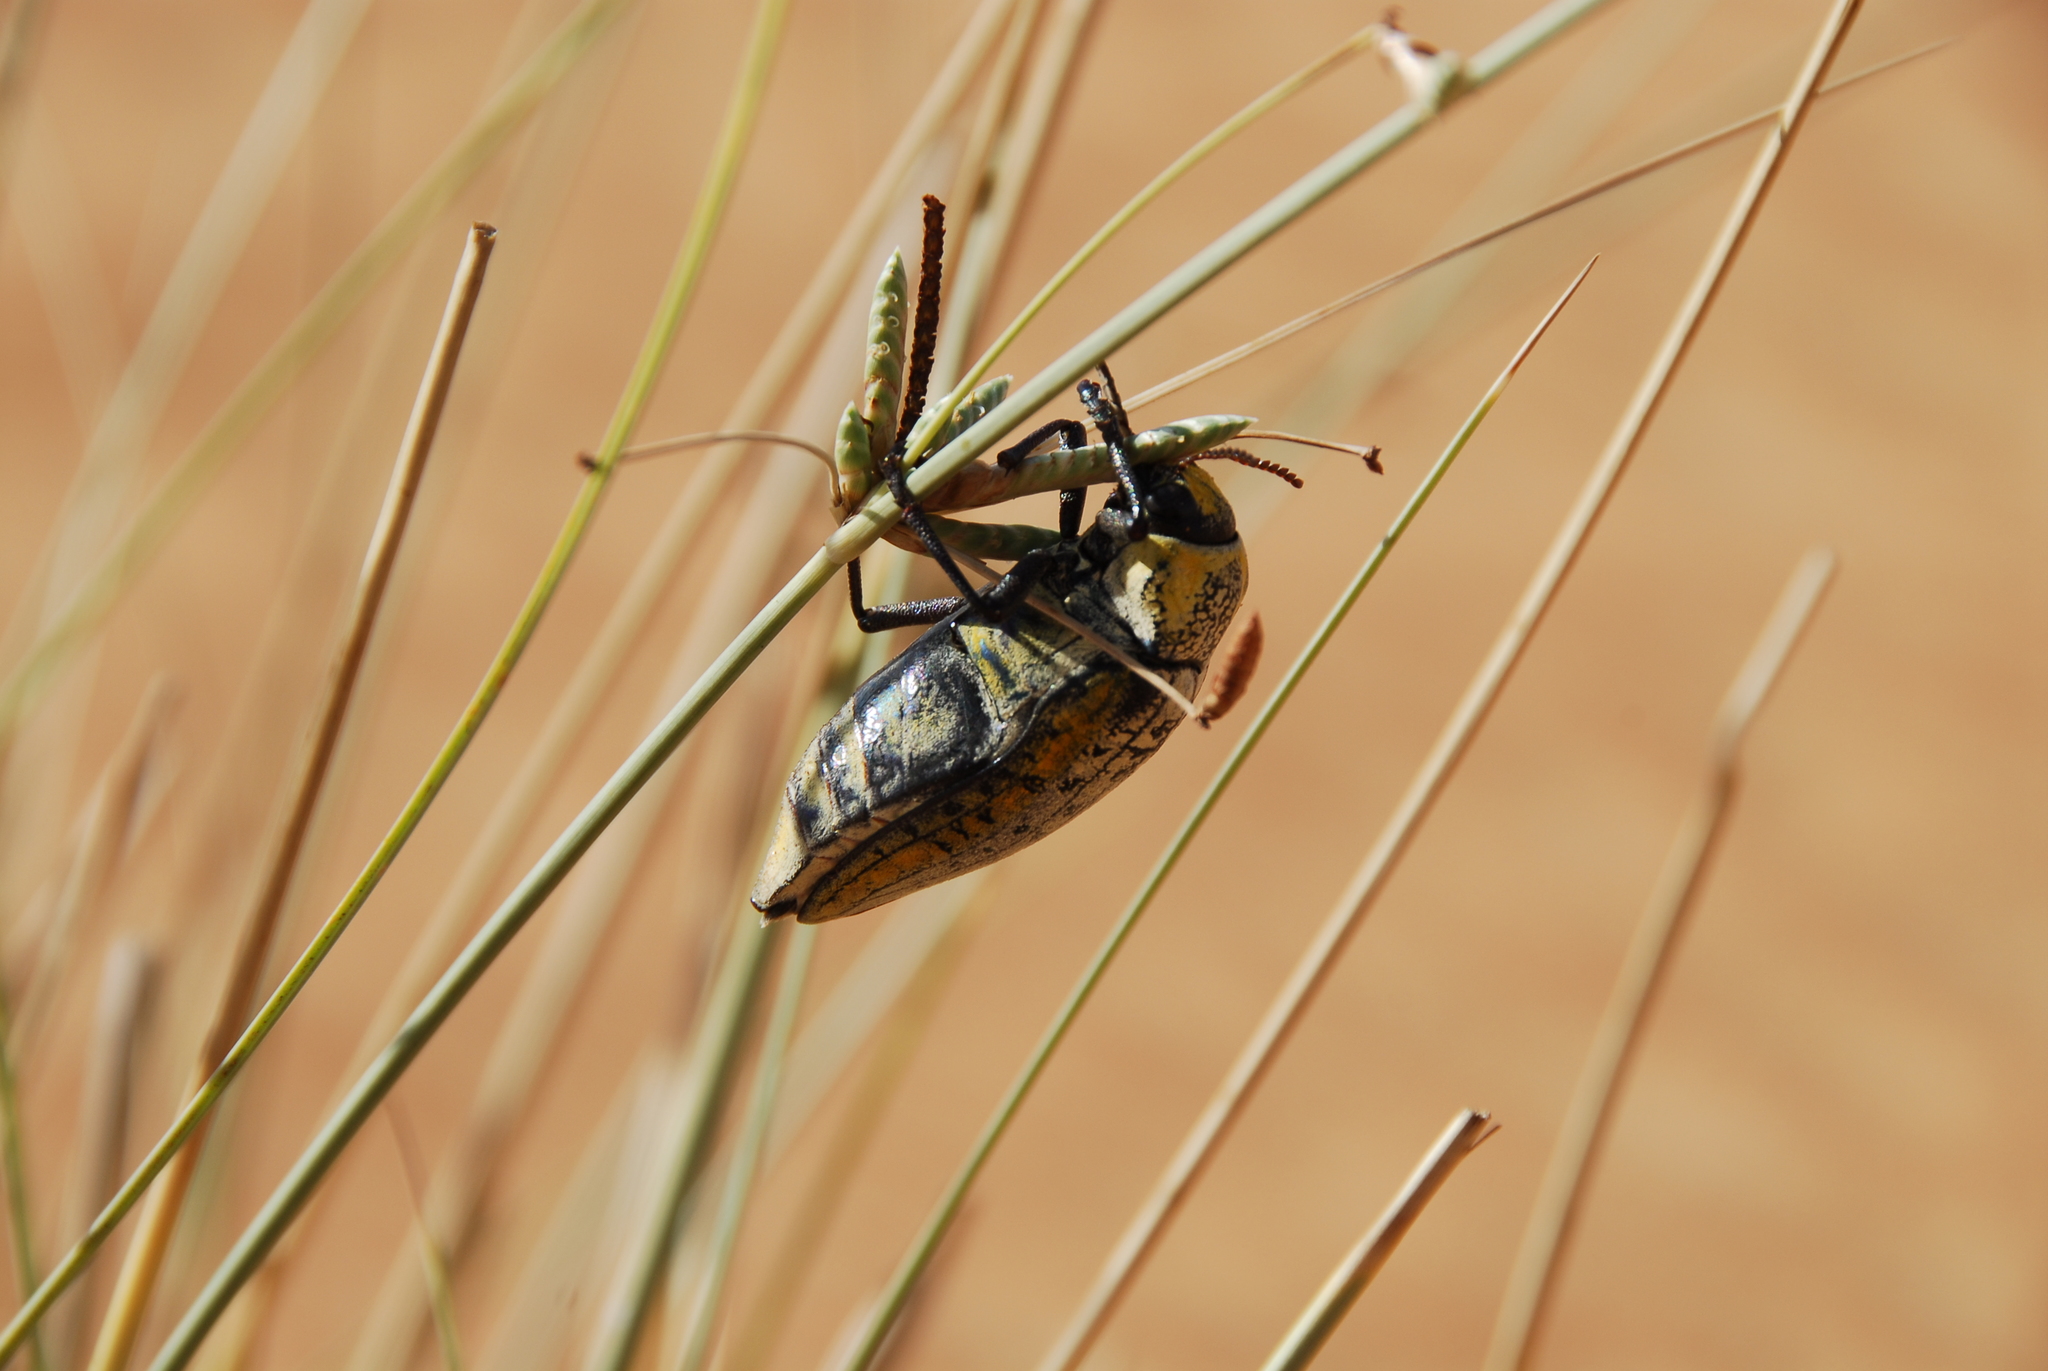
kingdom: Animalia
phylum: Arthropoda
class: Insecta
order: Coleoptera
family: Buprestidae
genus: Julodis
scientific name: Julodis candida
